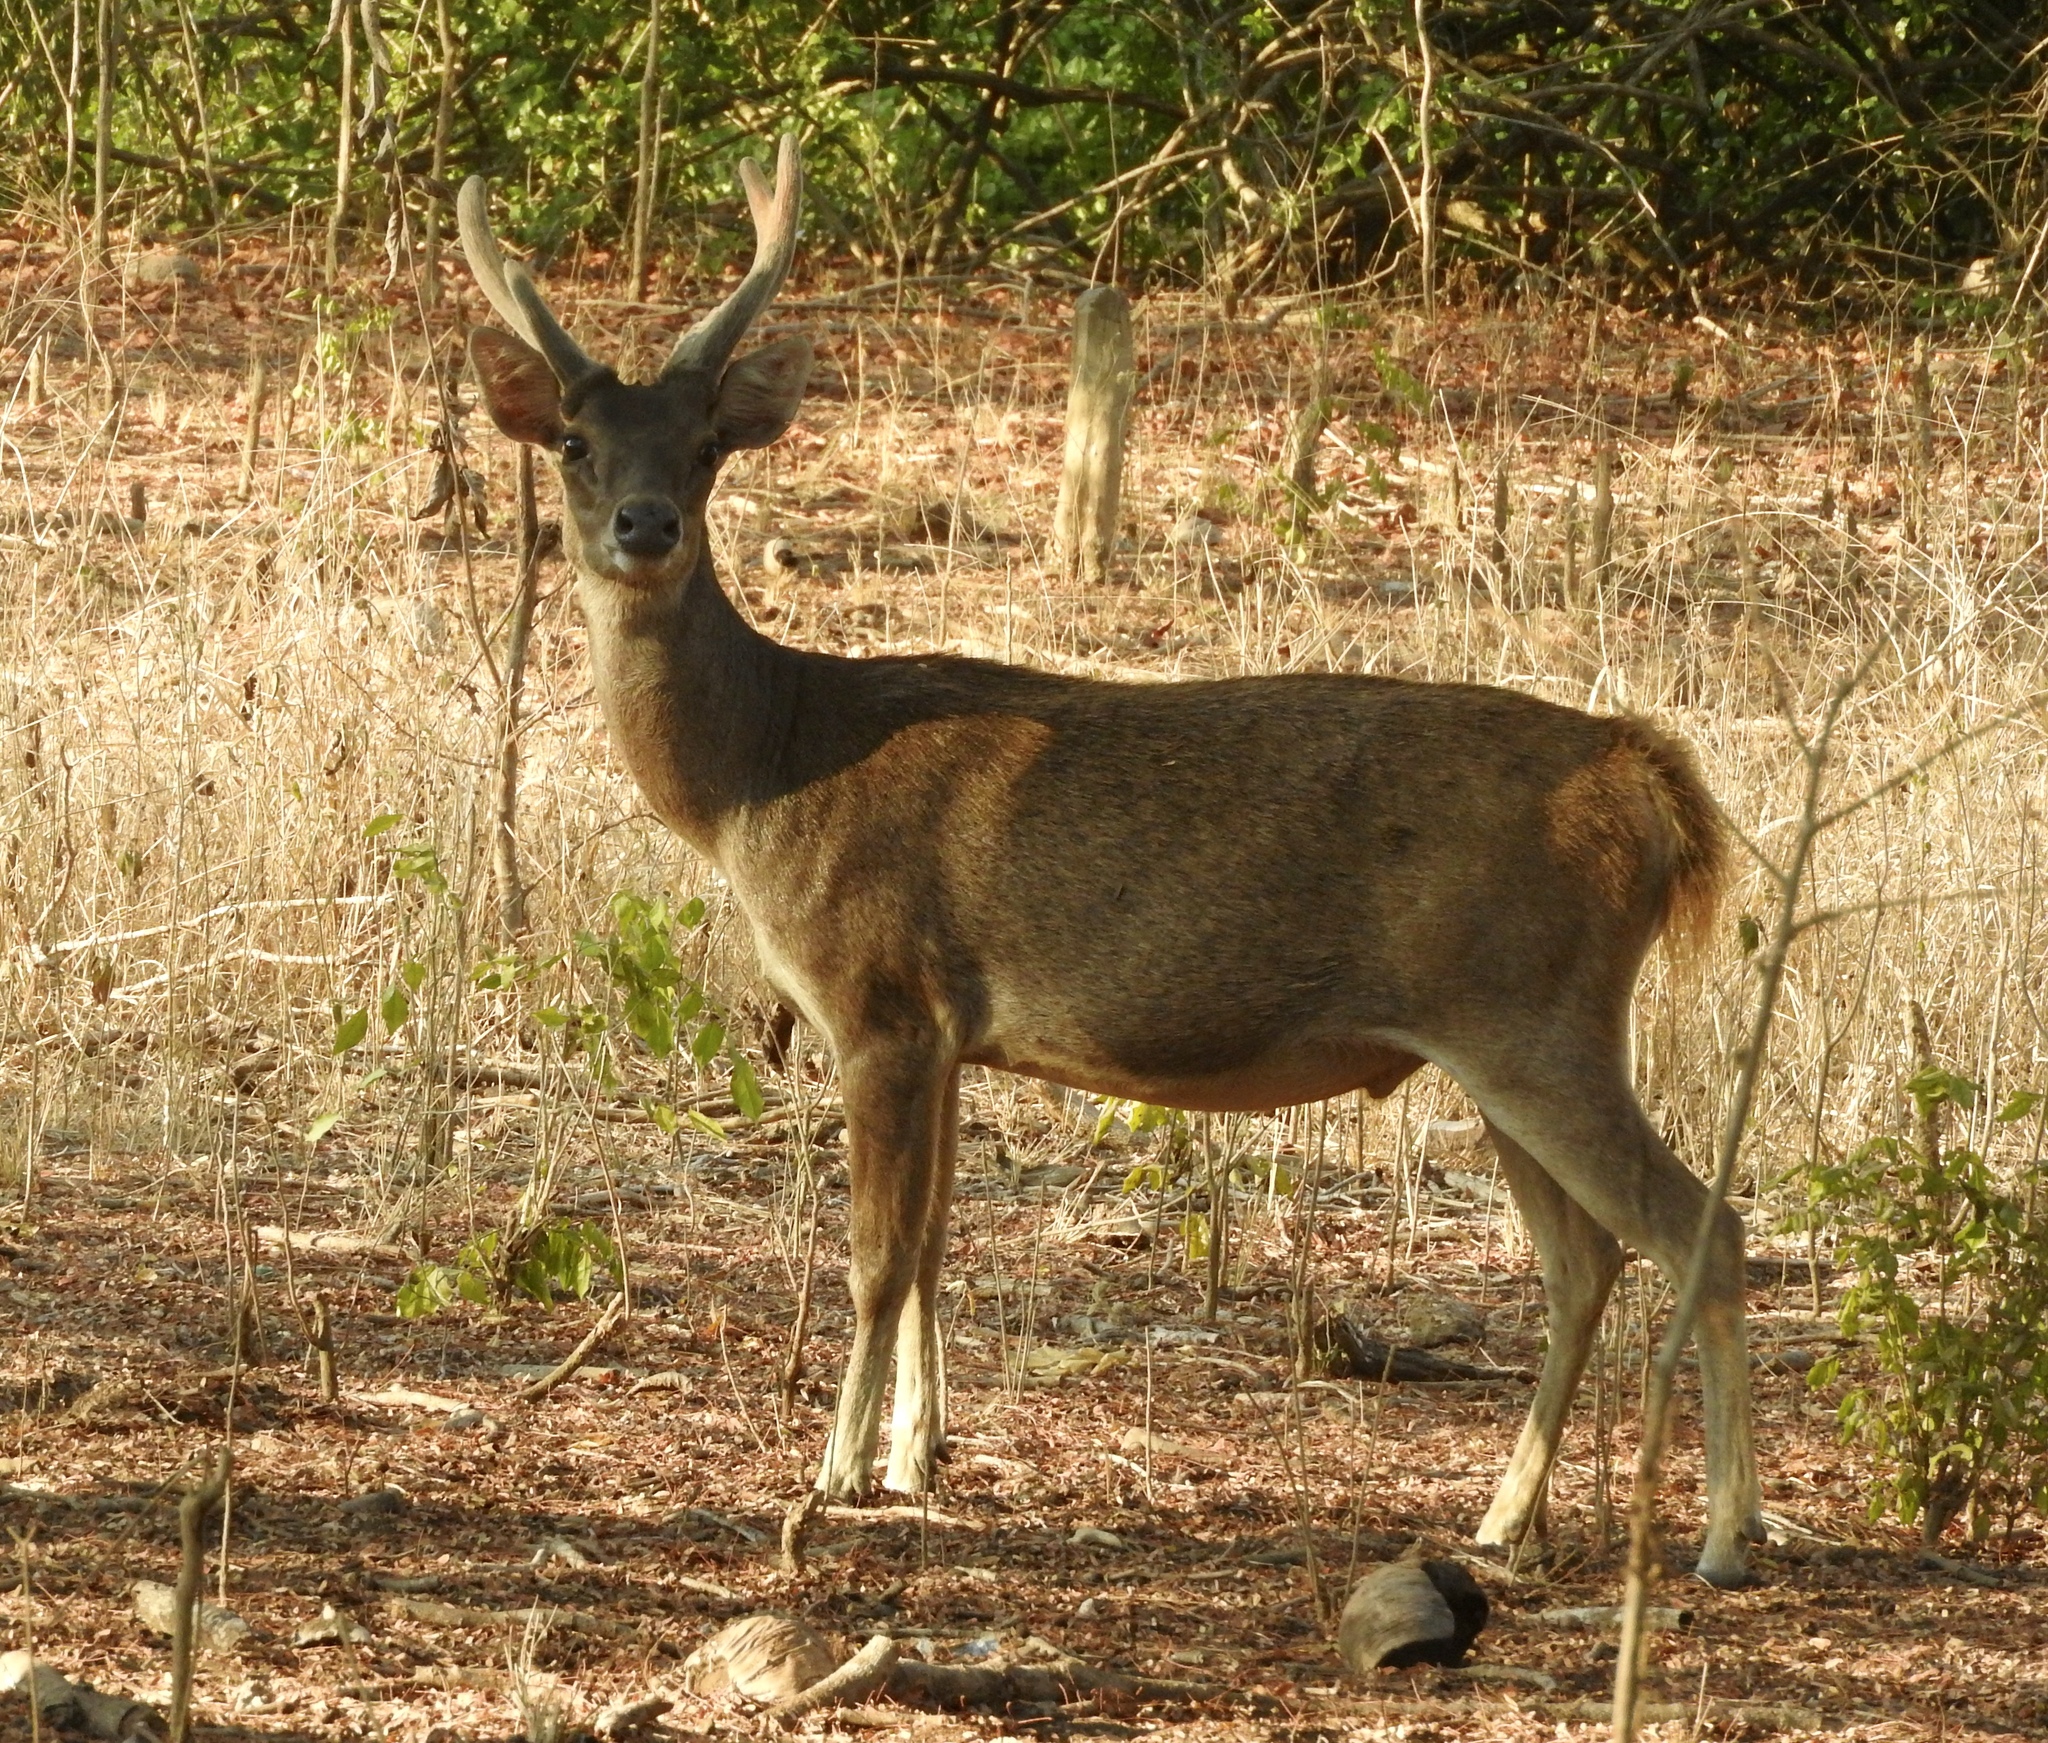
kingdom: Animalia
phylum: Chordata
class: Mammalia
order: Artiodactyla
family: Cervidae
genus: Rusa
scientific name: Rusa timorensis
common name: Javan rusa
